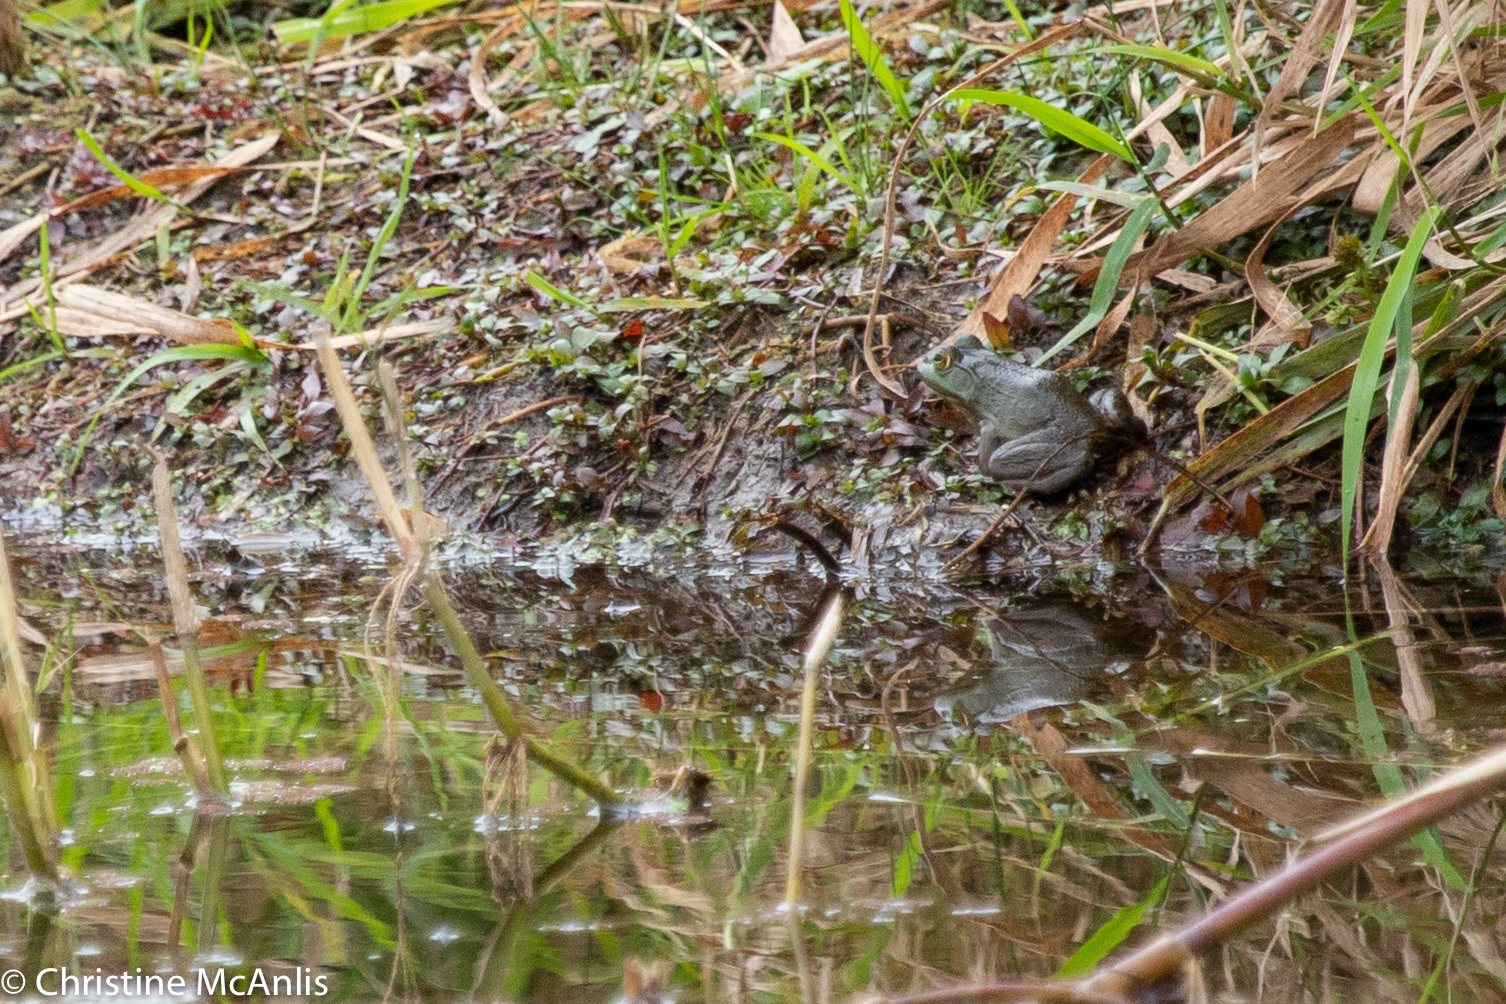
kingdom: Animalia
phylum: Chordata
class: Amphibia
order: Anura
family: Ranidae
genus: Lithobates
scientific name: Lithobates catesbeianus
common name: American bullfrog
